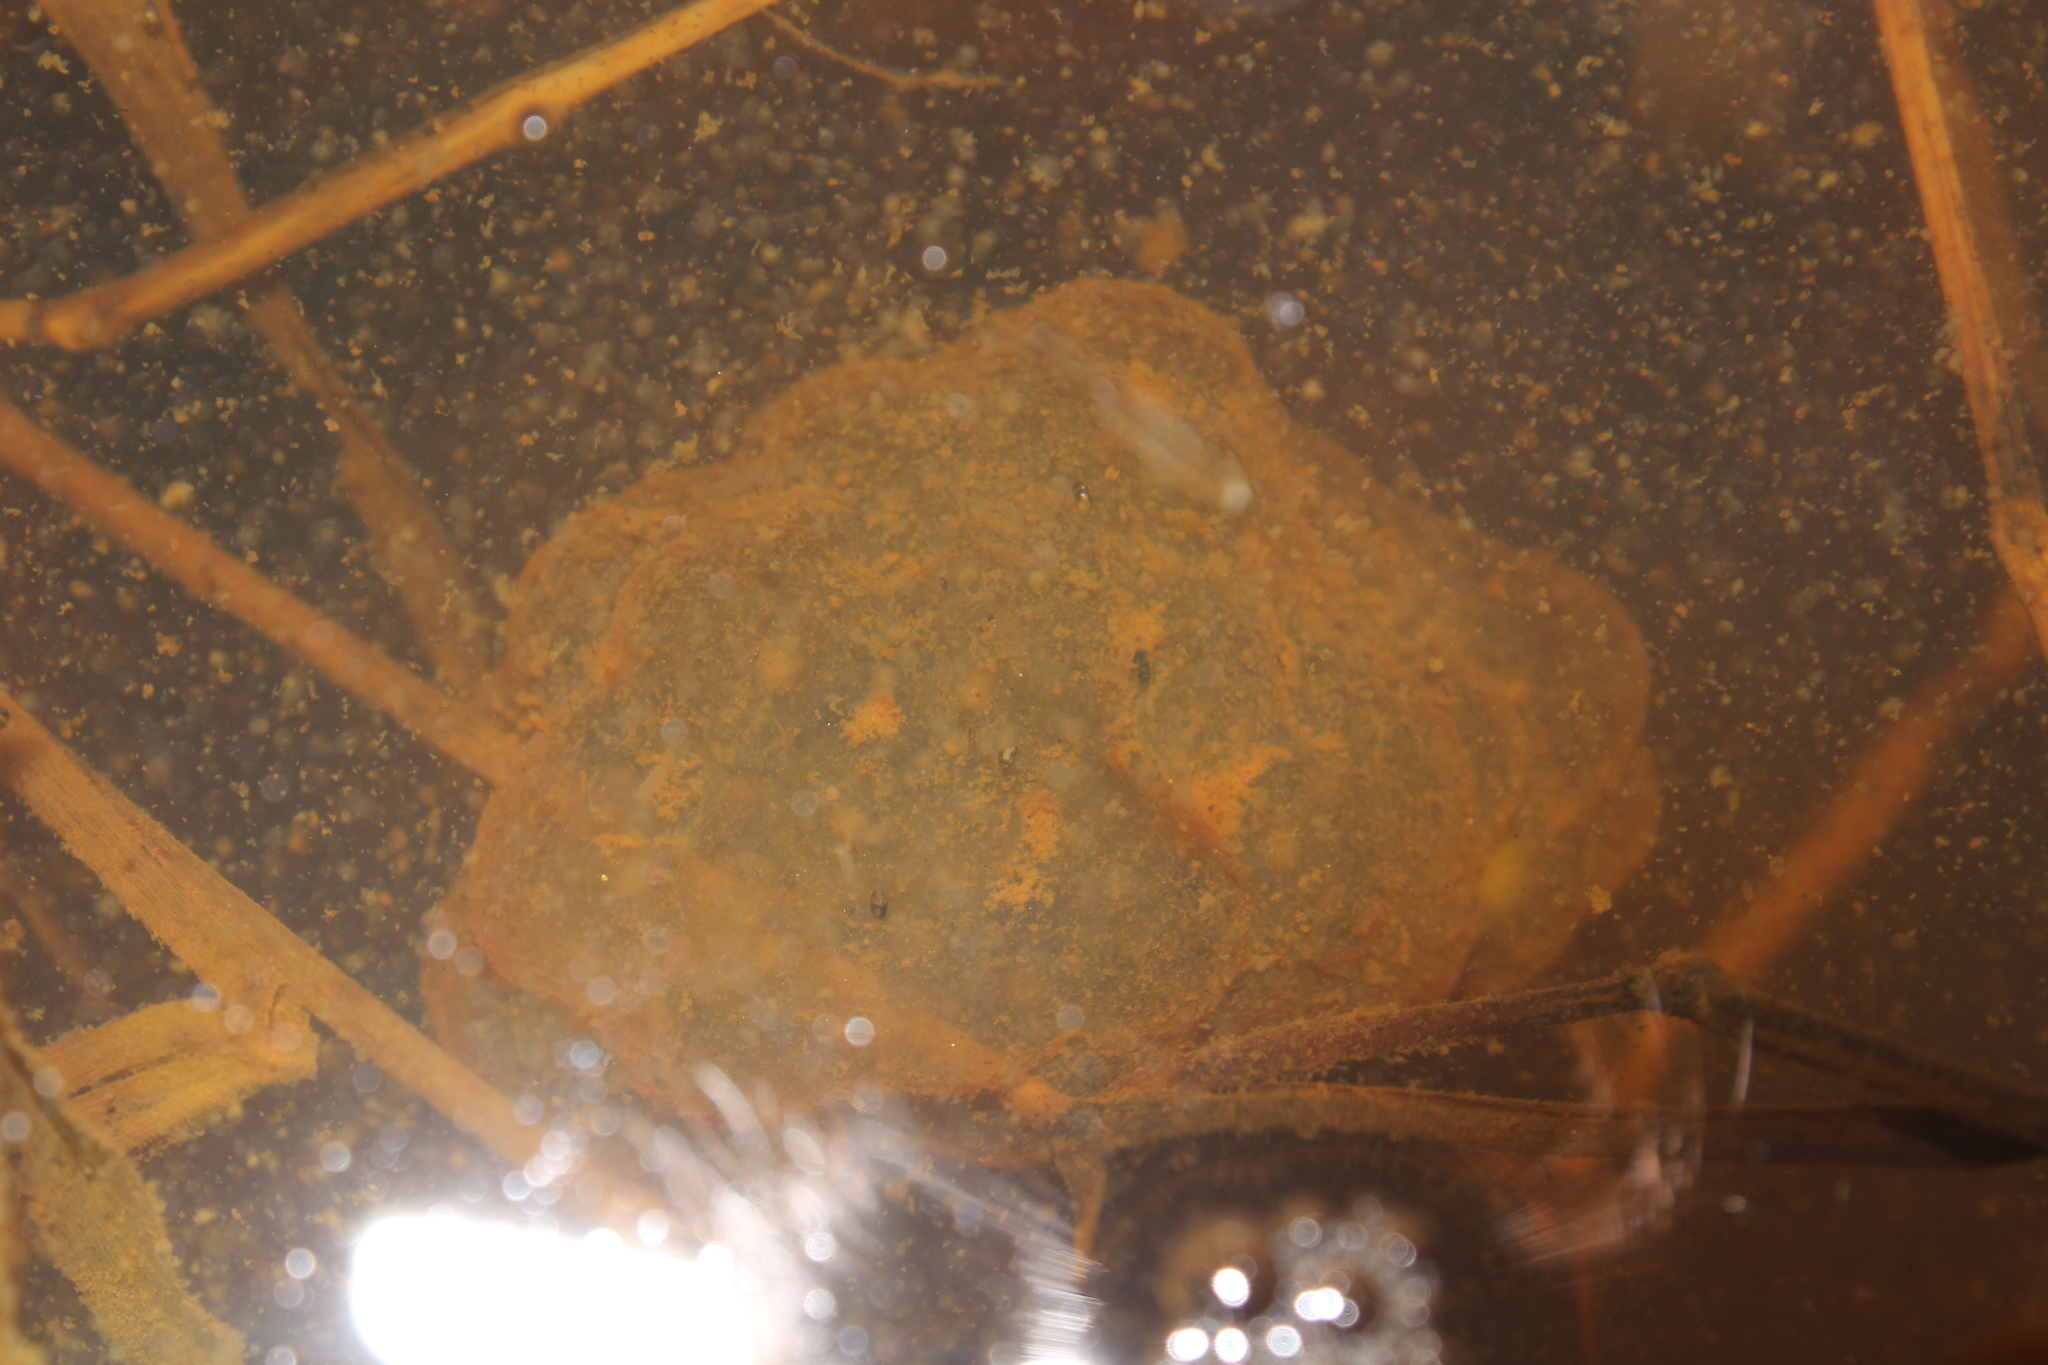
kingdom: Animalia
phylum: Chordata
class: Amphibia
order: Caudata
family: Ambystomatidae
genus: Ambystoma
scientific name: Ambystoma maculatum
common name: Spotted salamander
